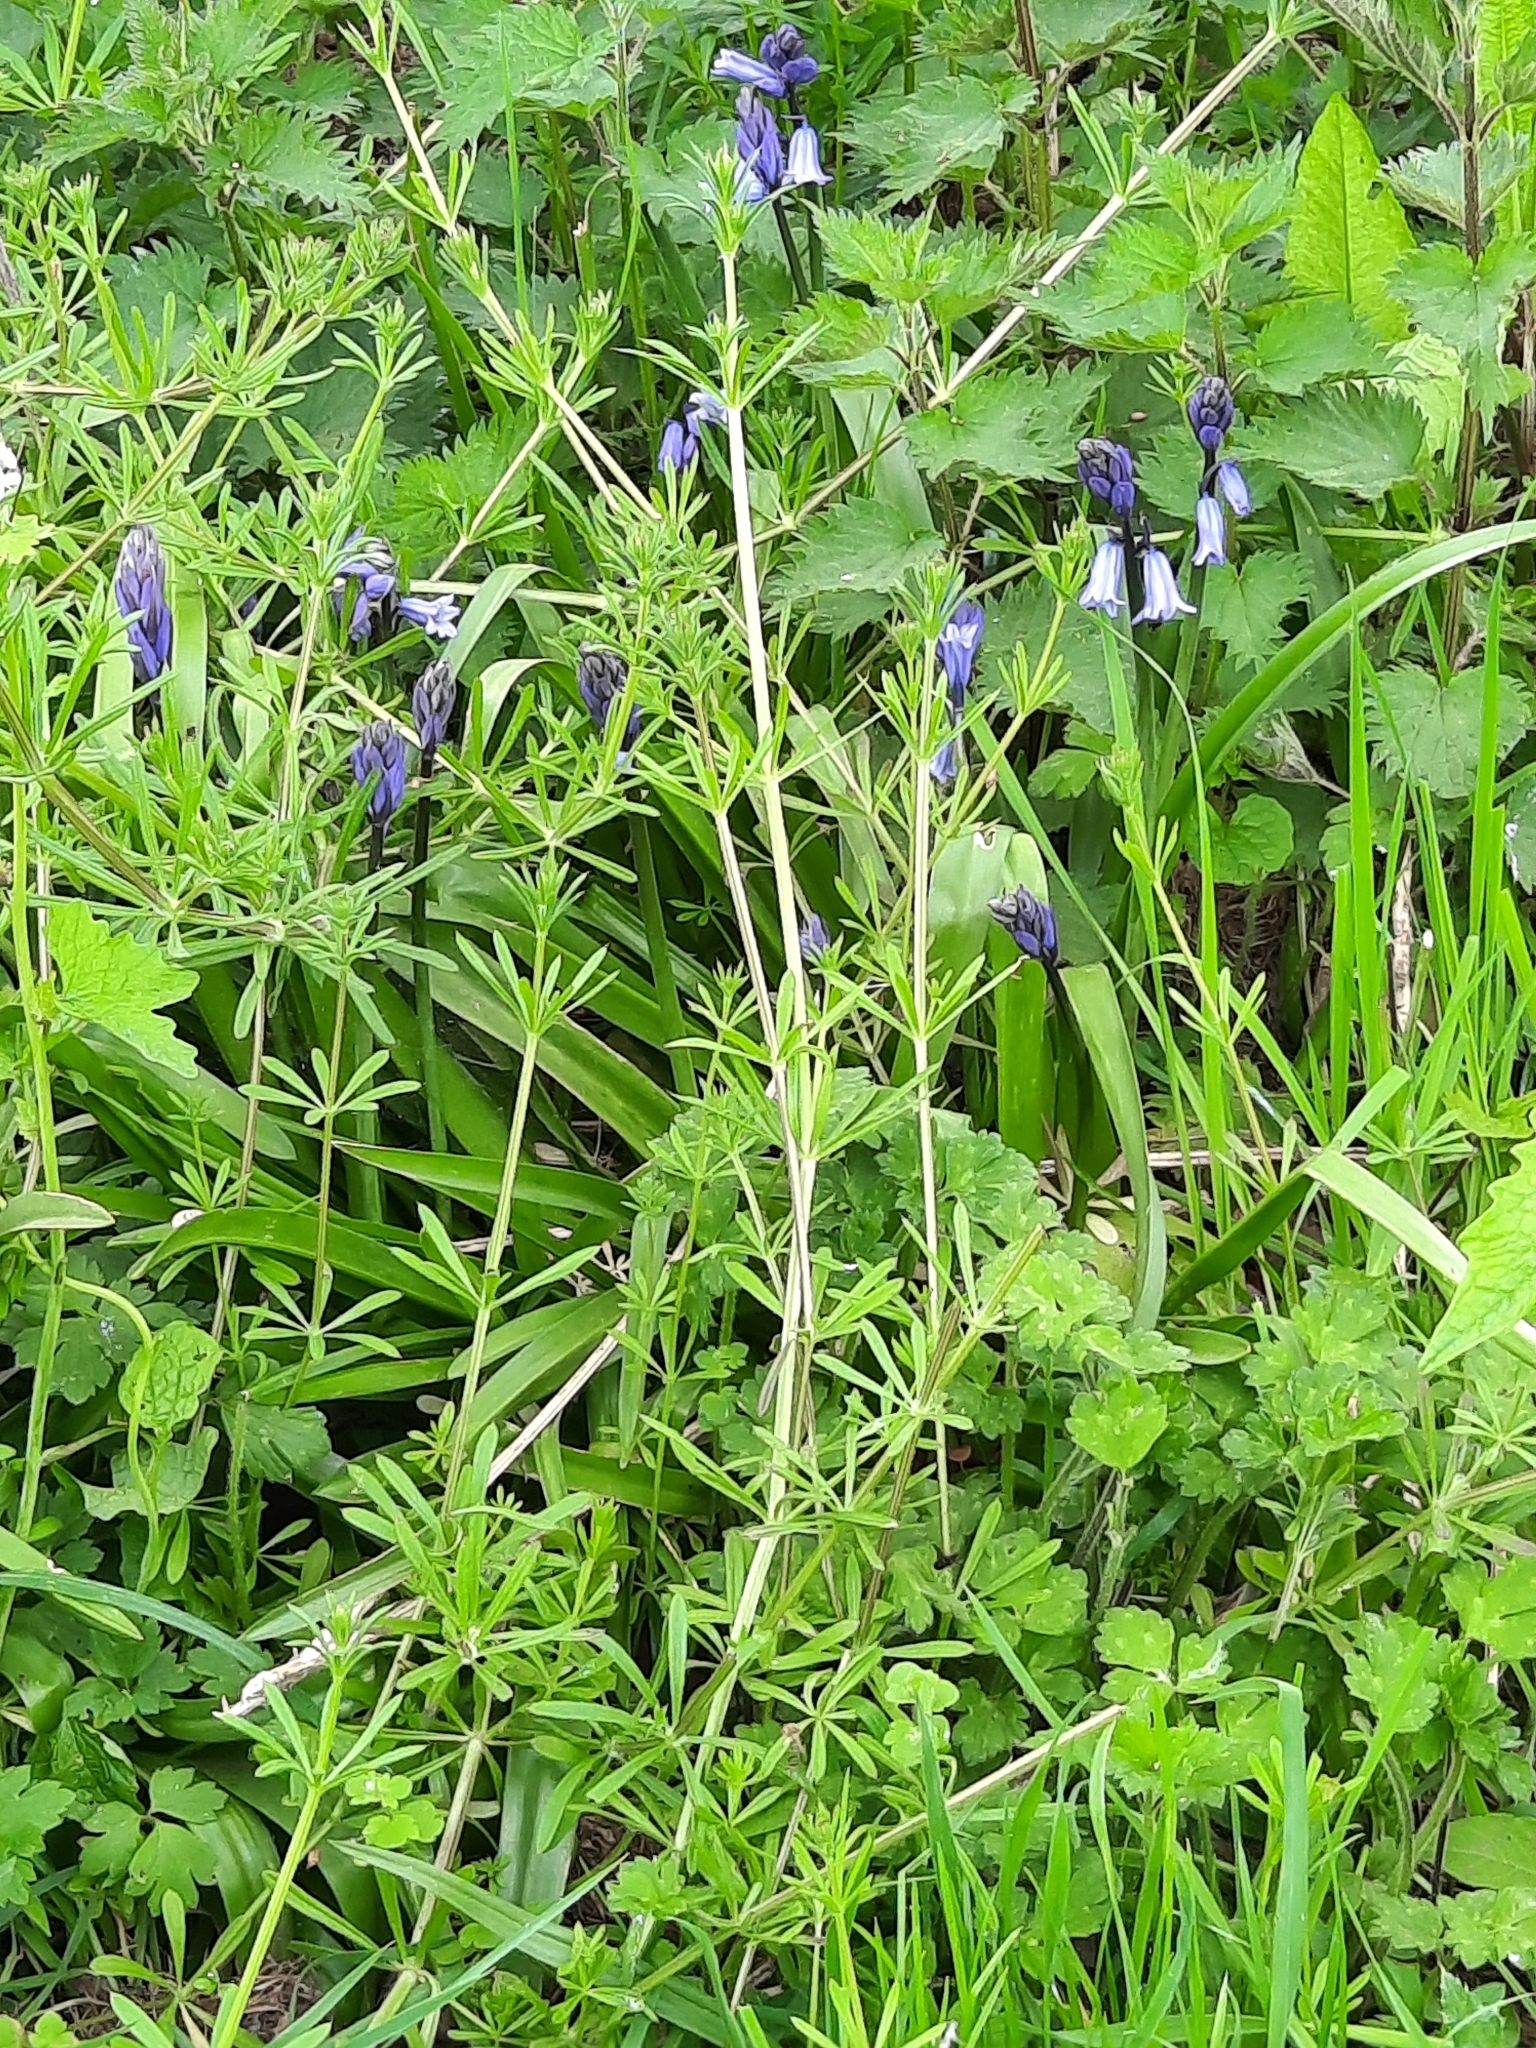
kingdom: Plantae
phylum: Tracheophyta
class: Liliopsida
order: Asparagales
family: Asparagaceae
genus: Hyacinthoides
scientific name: Hyacinthoides hispanica
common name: Spanish bluebell
